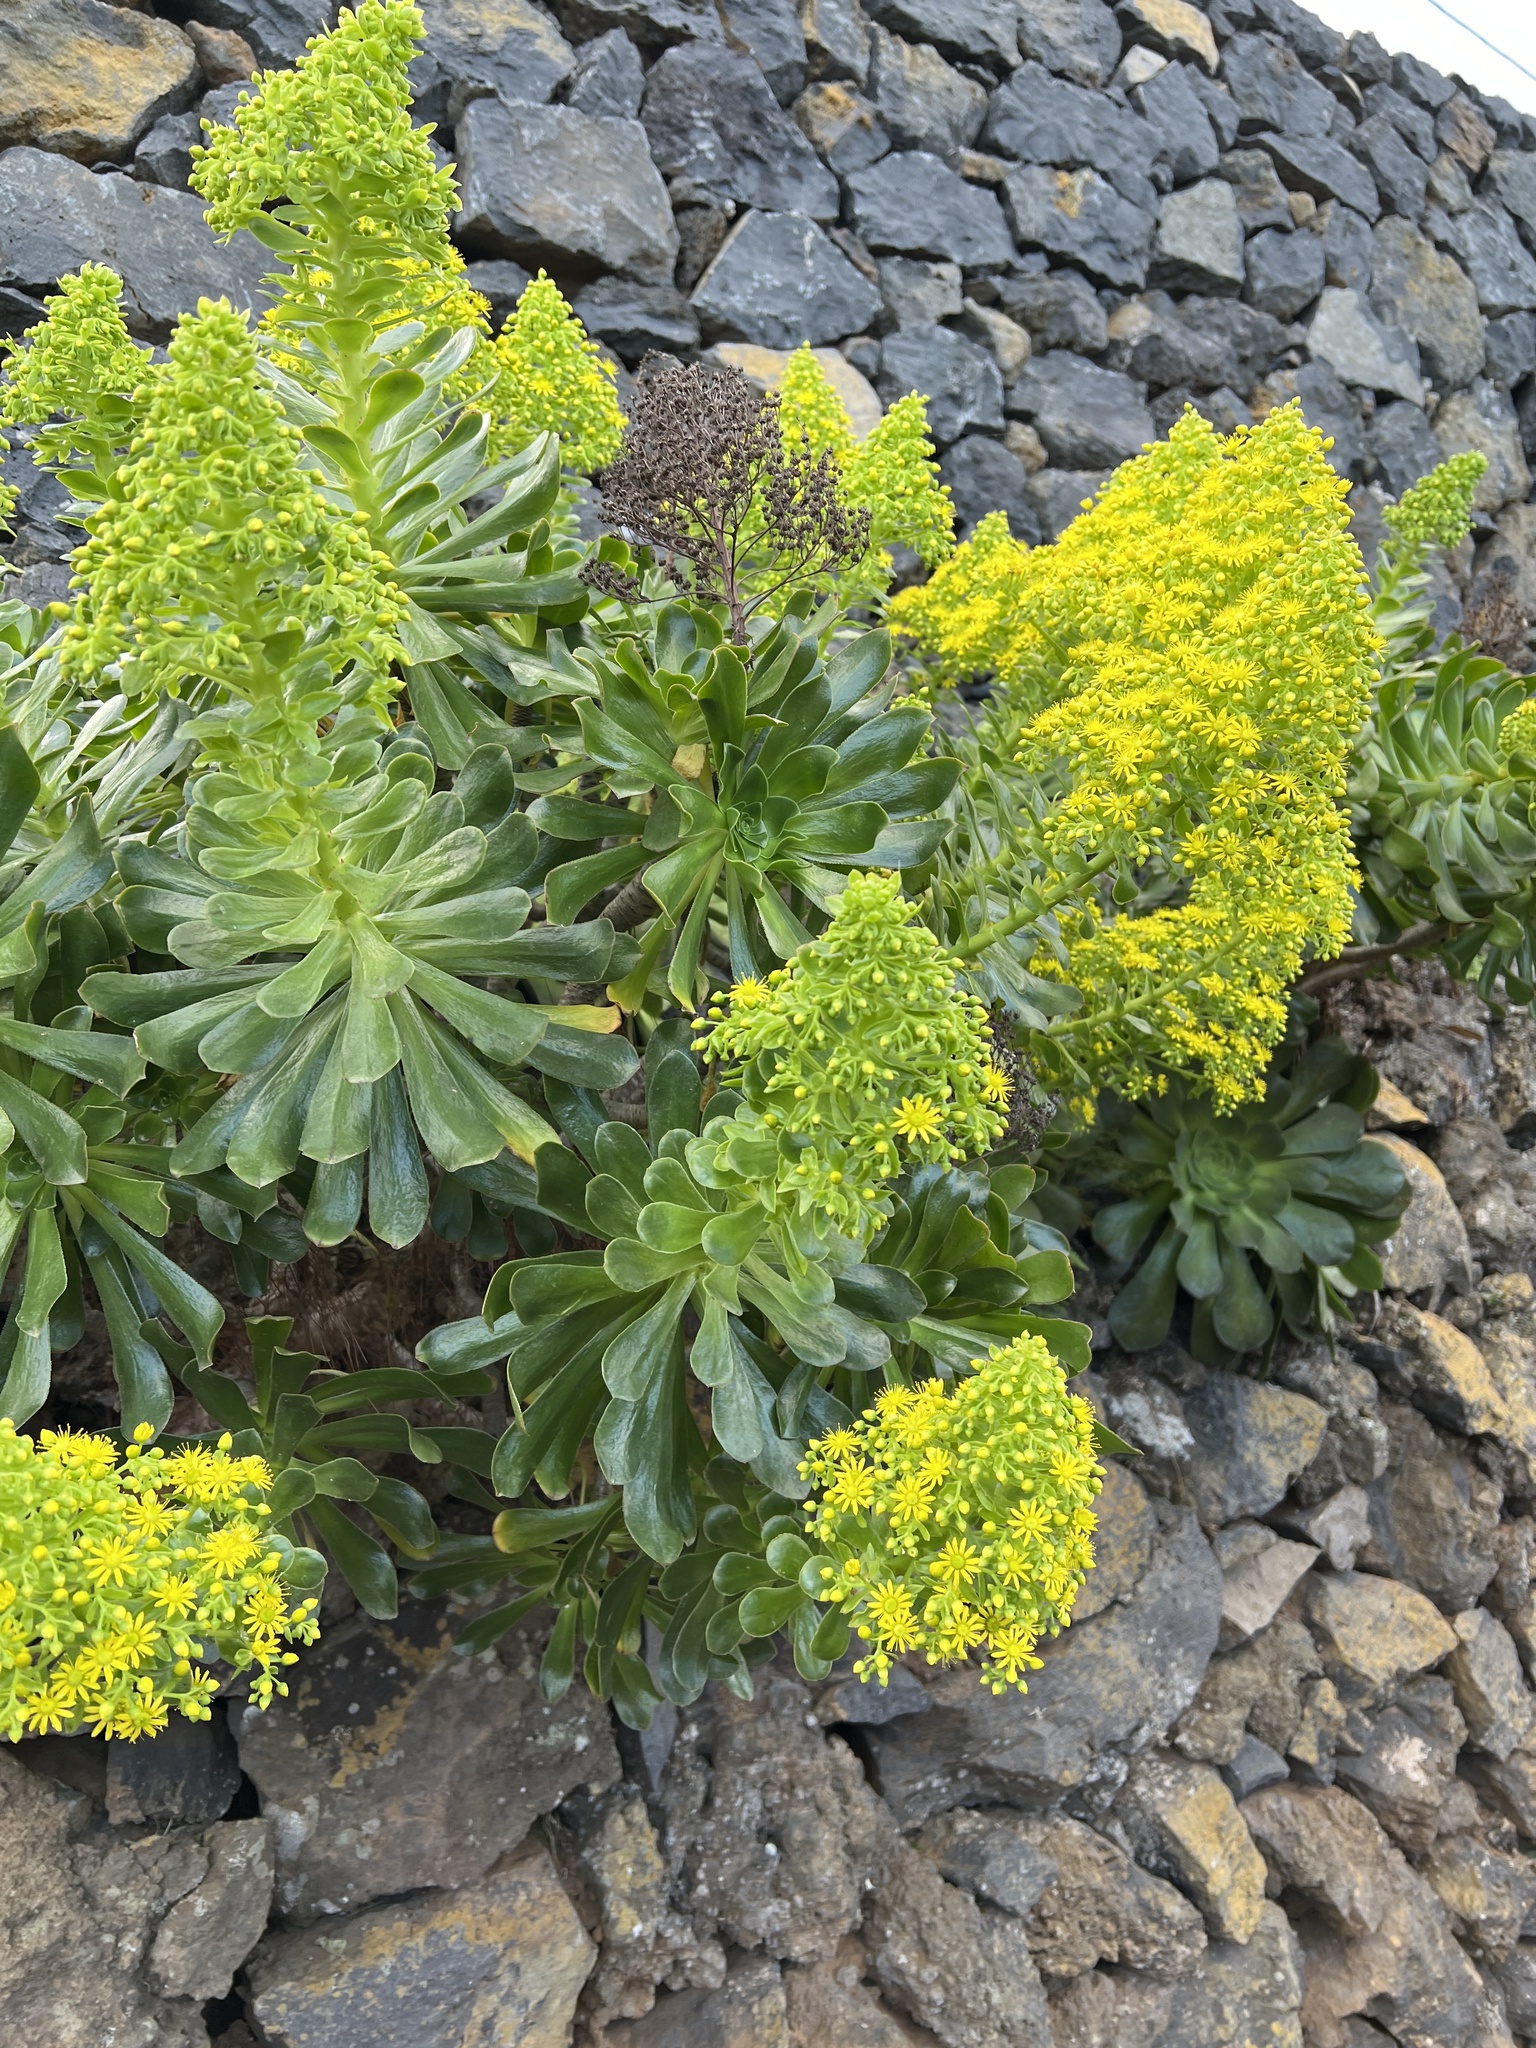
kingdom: Plantae
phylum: Tracheophyta
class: Magnoliopsida
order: Saxifragales
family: Crassulaceae
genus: Aeonium
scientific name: Aeonium arboreum
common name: Tree aeonium
